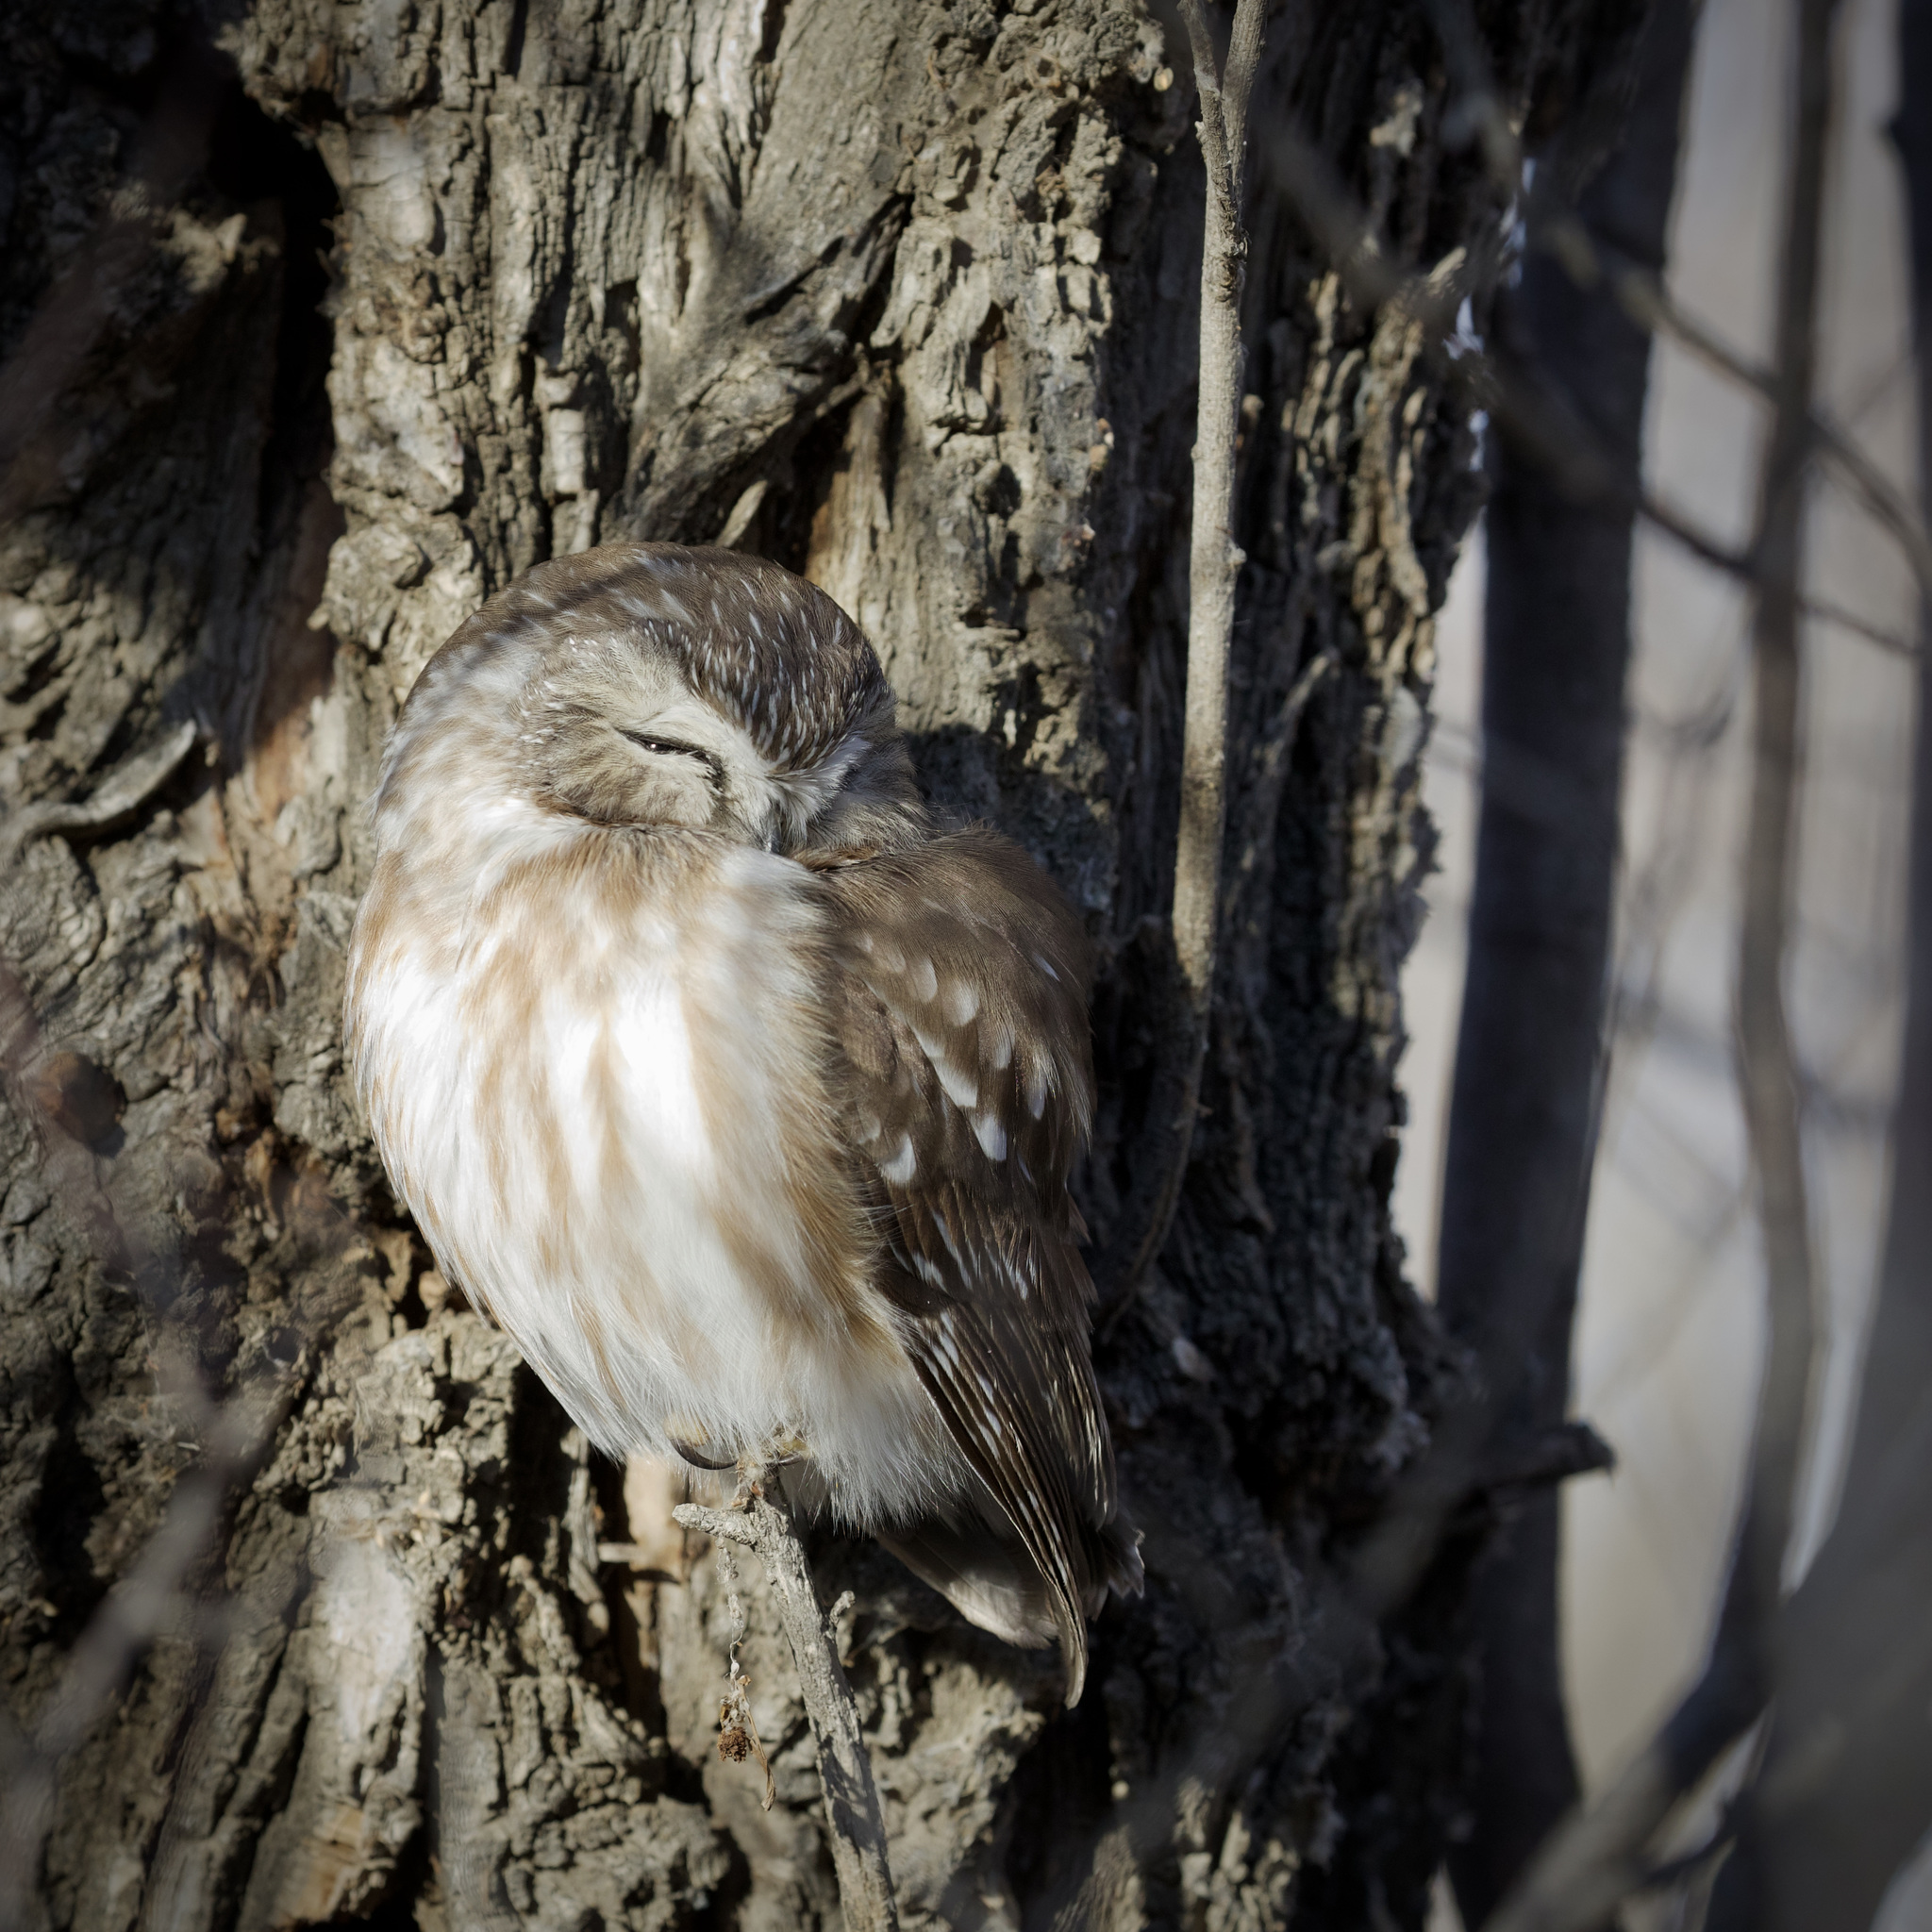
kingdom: Animalia
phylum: Chordata
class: Aves
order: Strigiformes
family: Strigidae
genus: Aegolius
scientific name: Aegolius acadicus
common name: Northern saw-whet owl
